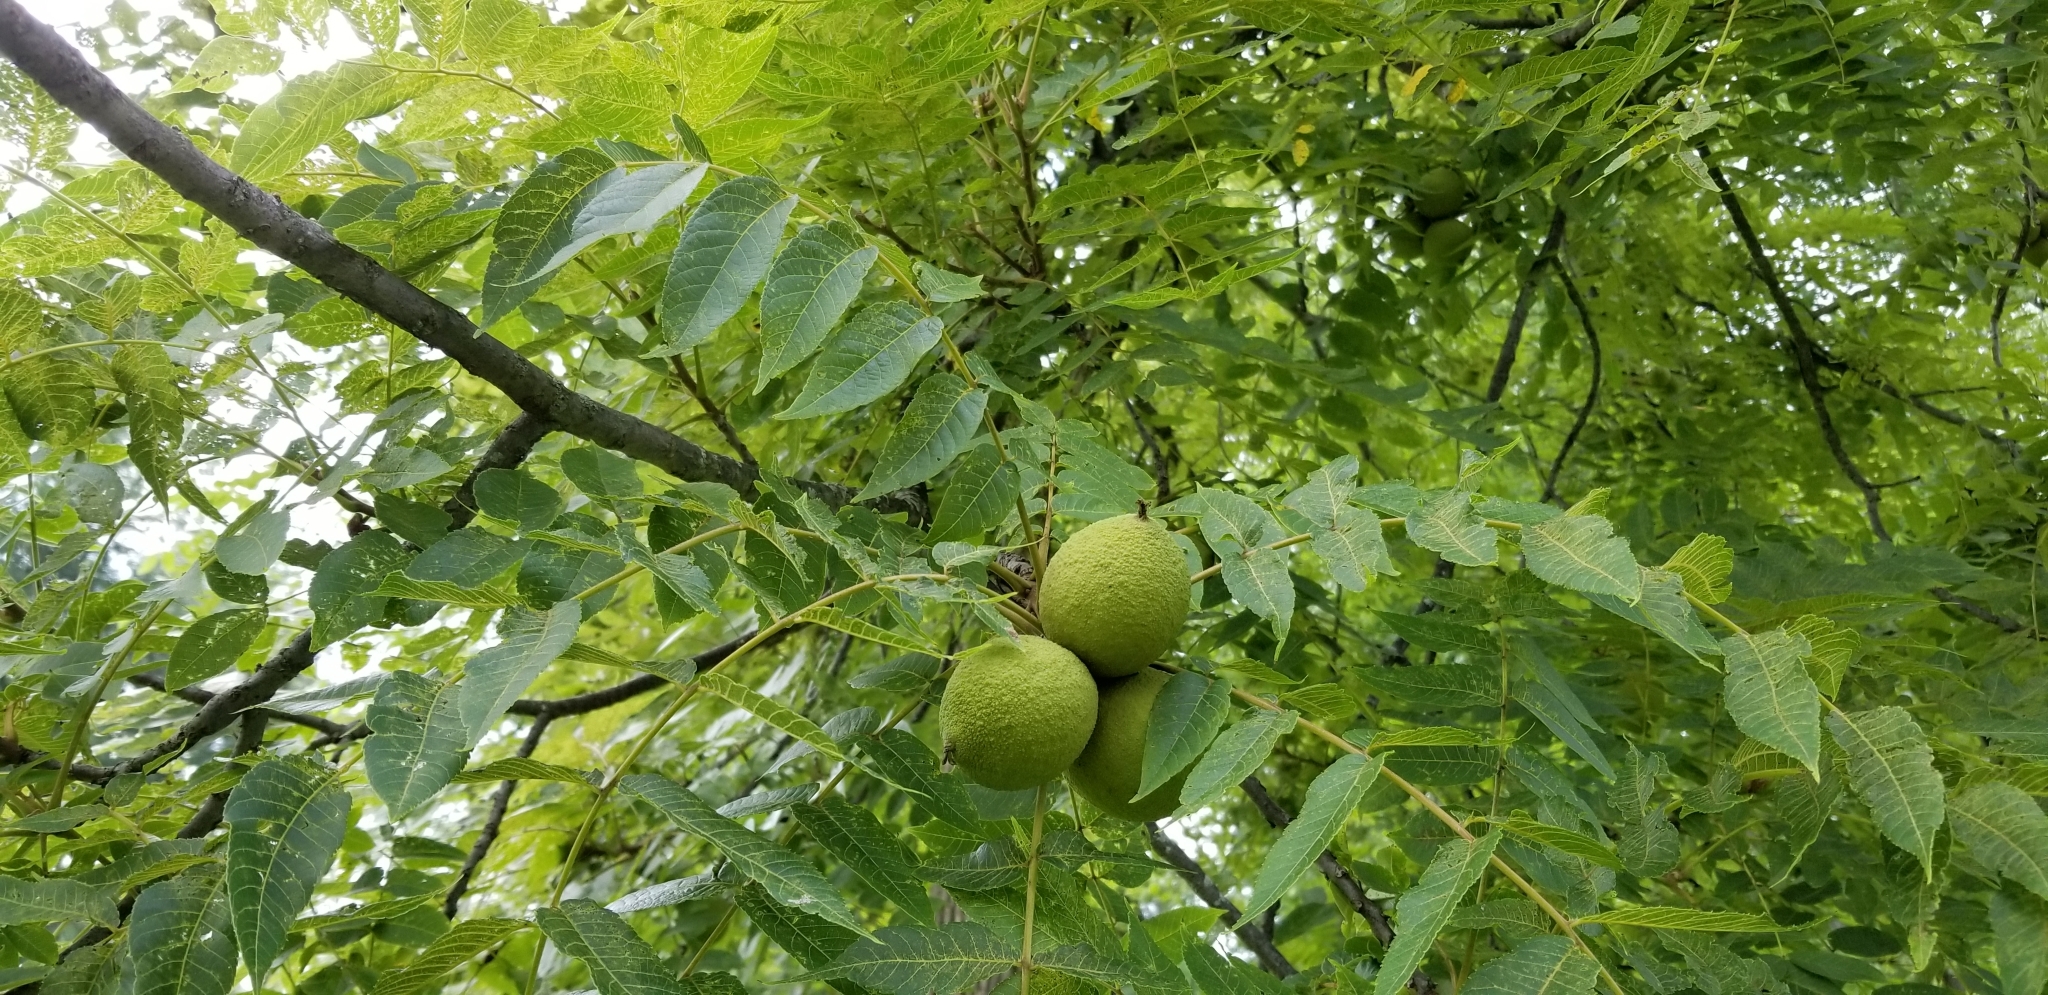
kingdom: Plantae
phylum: Tracheophyta
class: Magnoliopsida
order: Fagales
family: Juglandaceae
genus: Juglans
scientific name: Juglans nigra
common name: Black walnut
